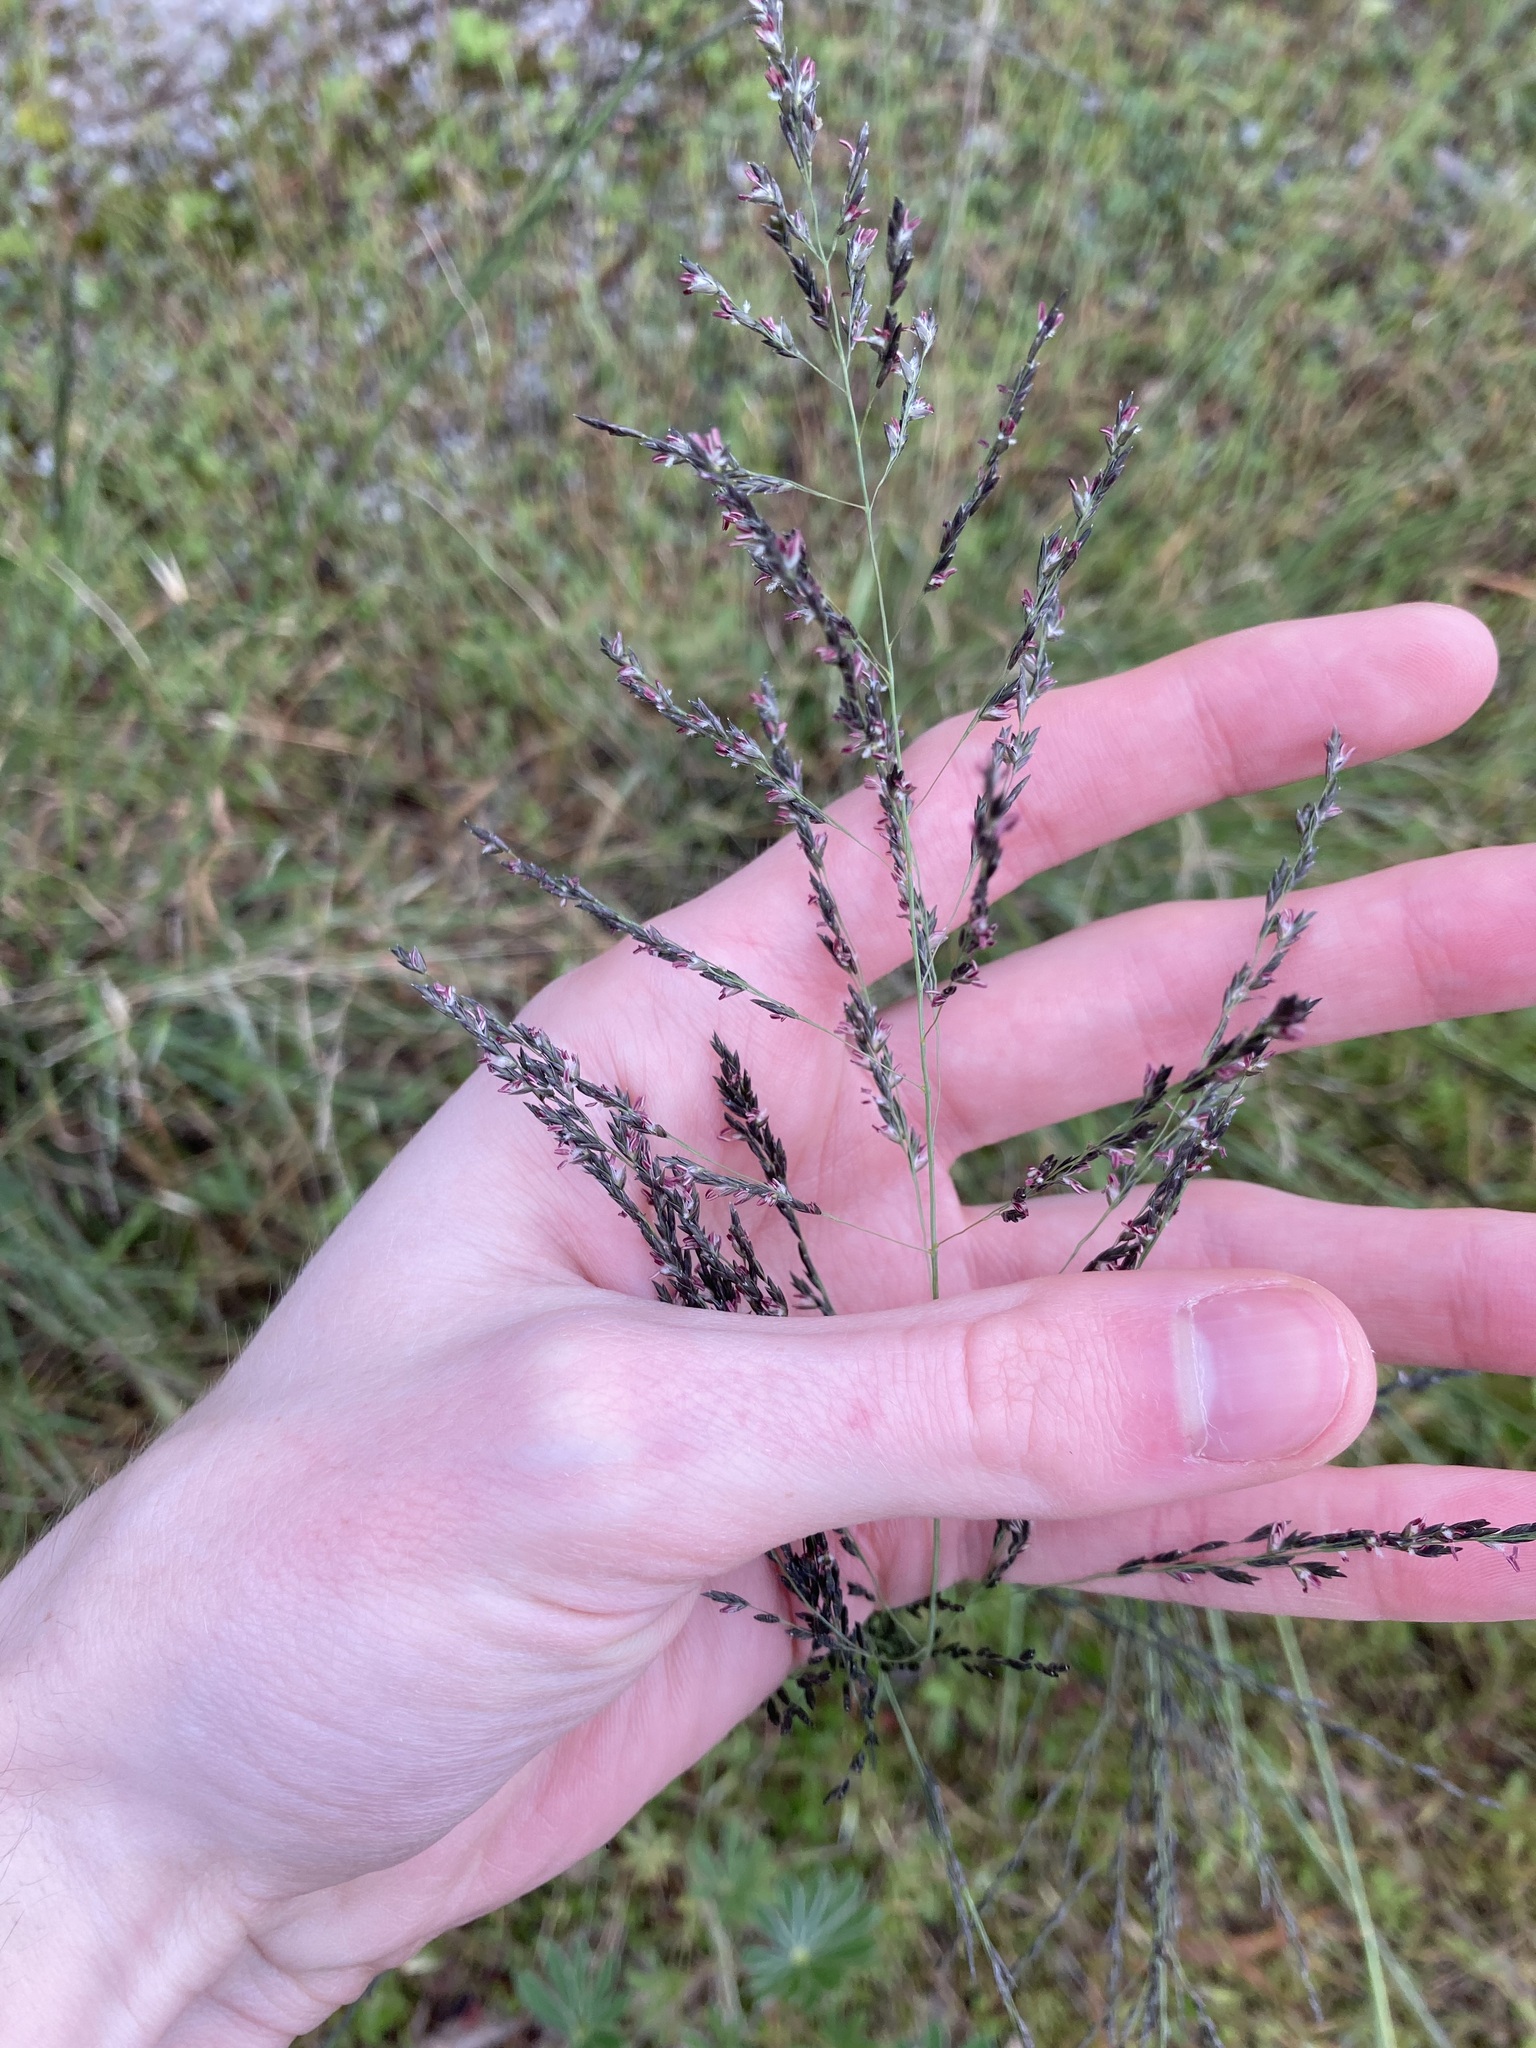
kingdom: Plantae
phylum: Tracheophyta
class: Liliopsida
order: Poales
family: Poaceae
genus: Eragrostis
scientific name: Eragrostis curvula
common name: African love-grass
